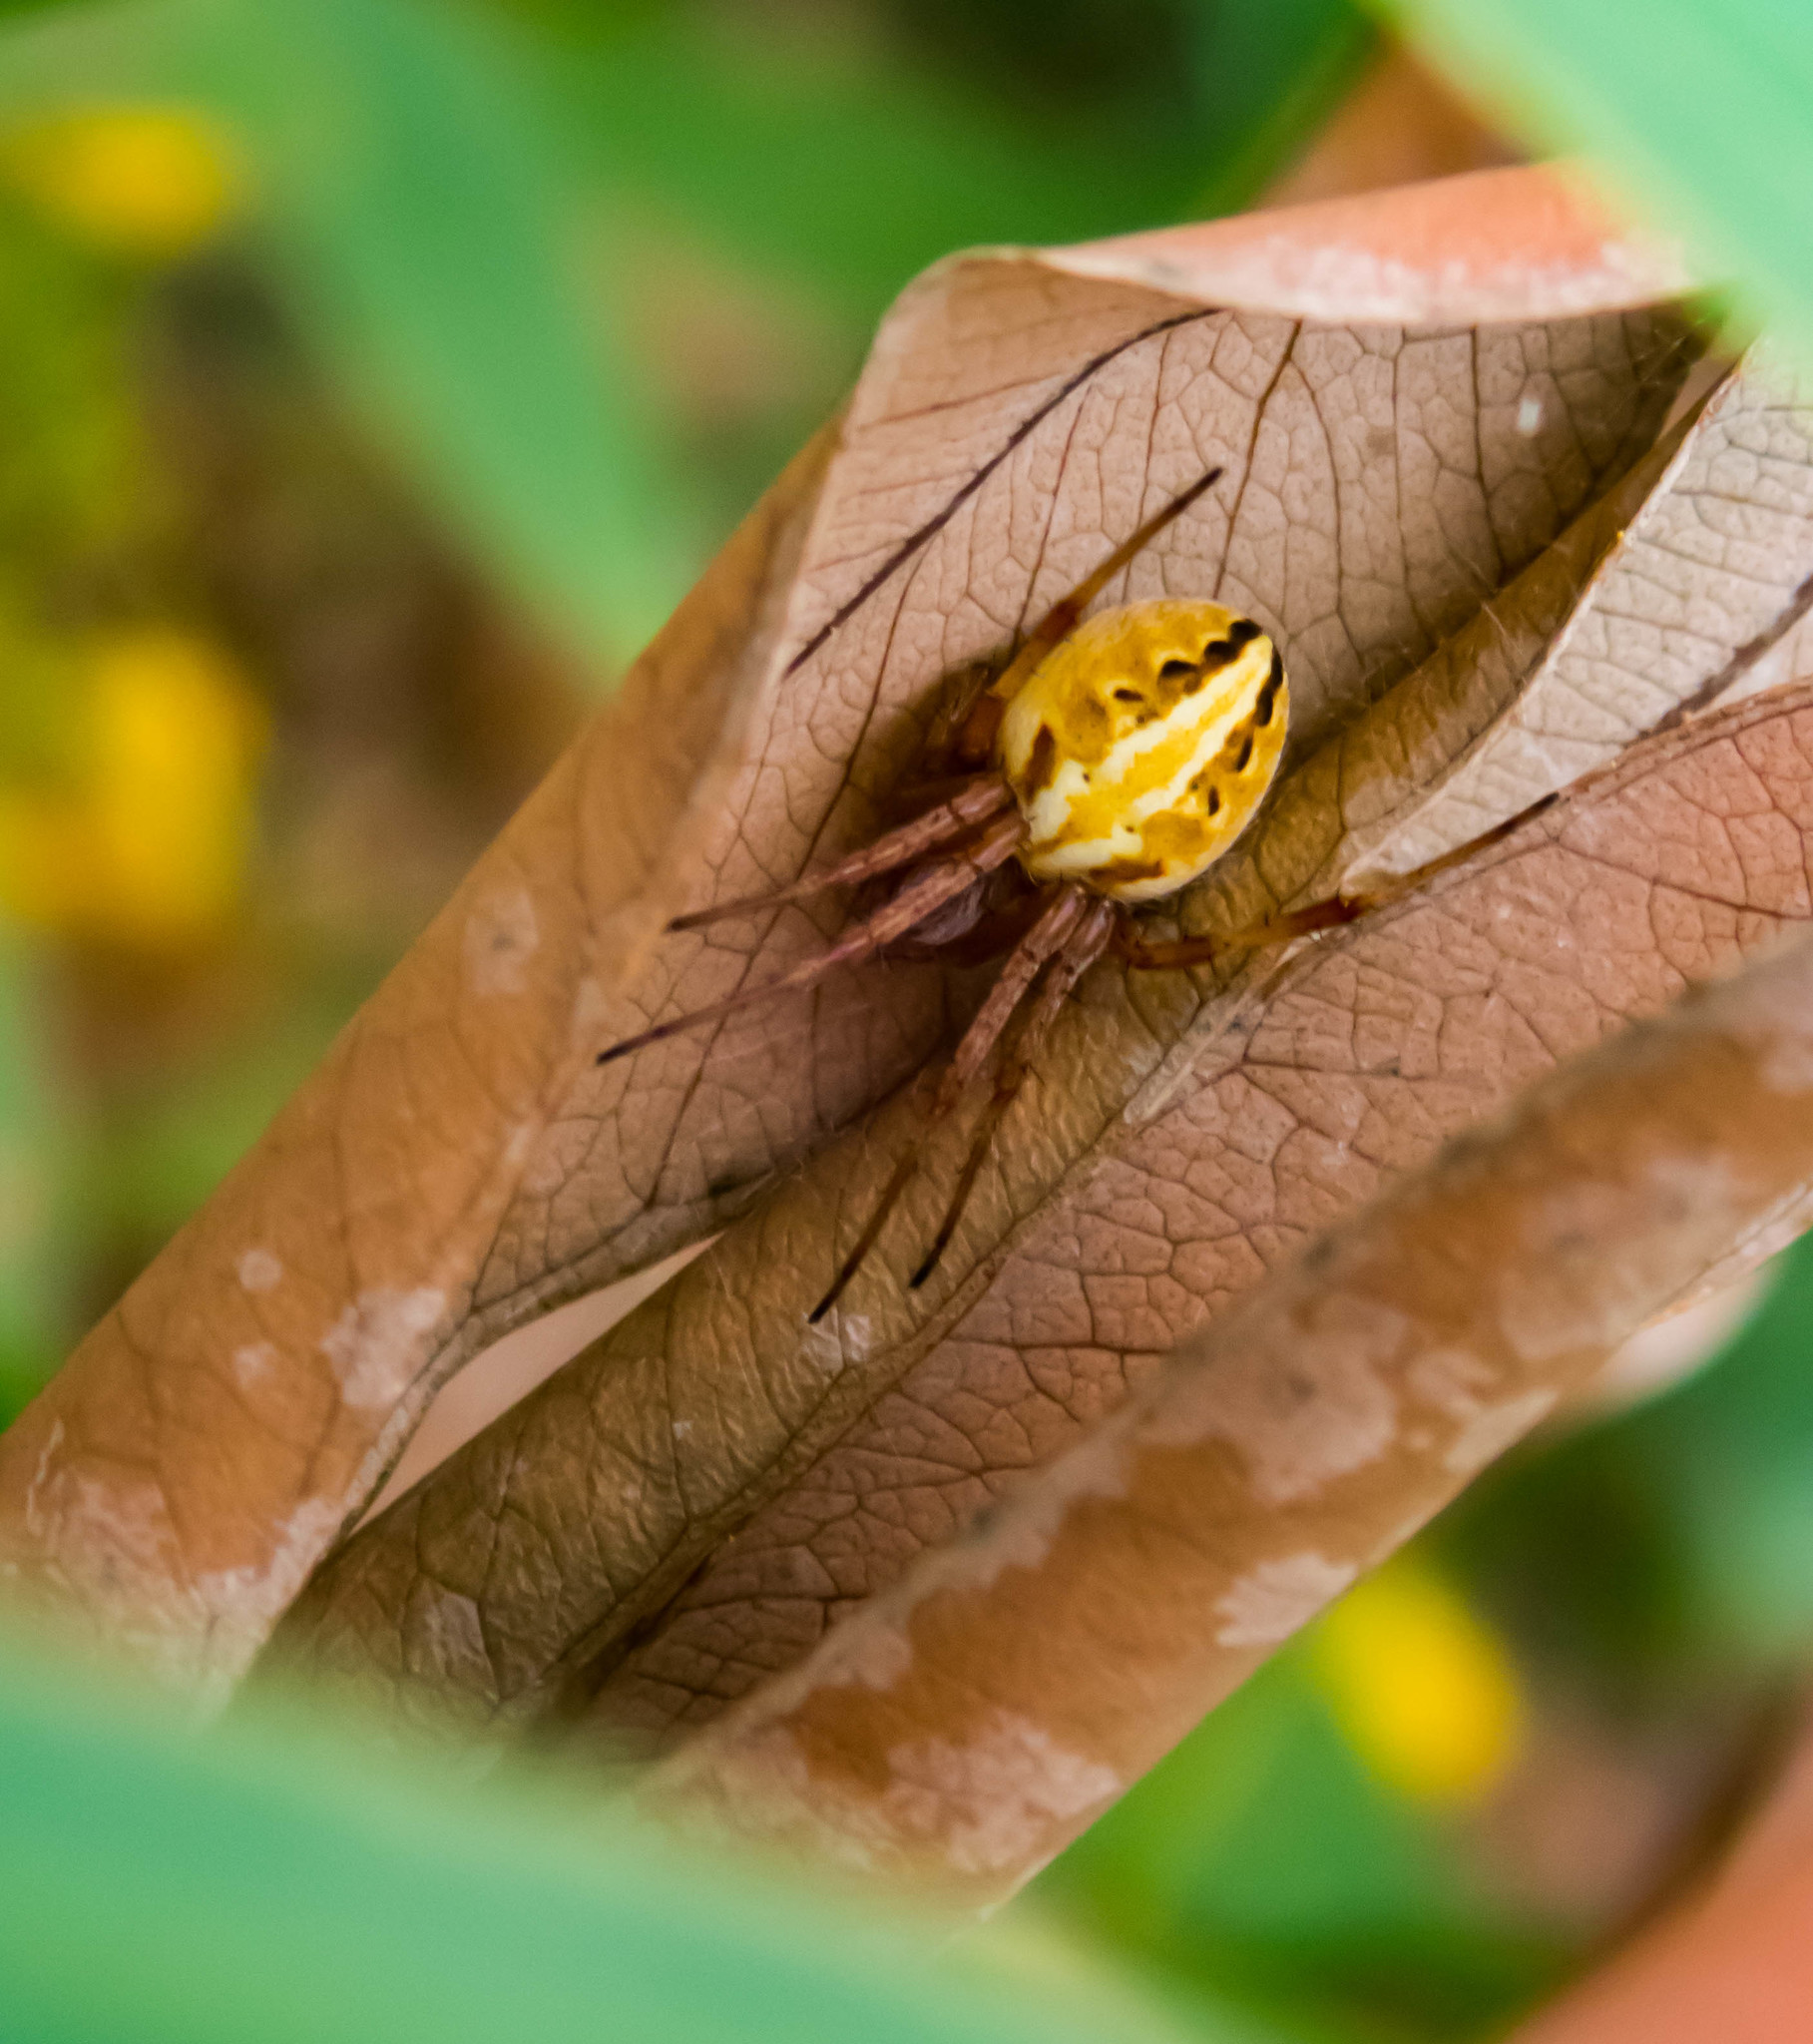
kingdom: Animalia
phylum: Arthropoda
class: Arachnida
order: Araneae
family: Araneidae
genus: Neoscona
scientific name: Neoscona theisi
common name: Spider
